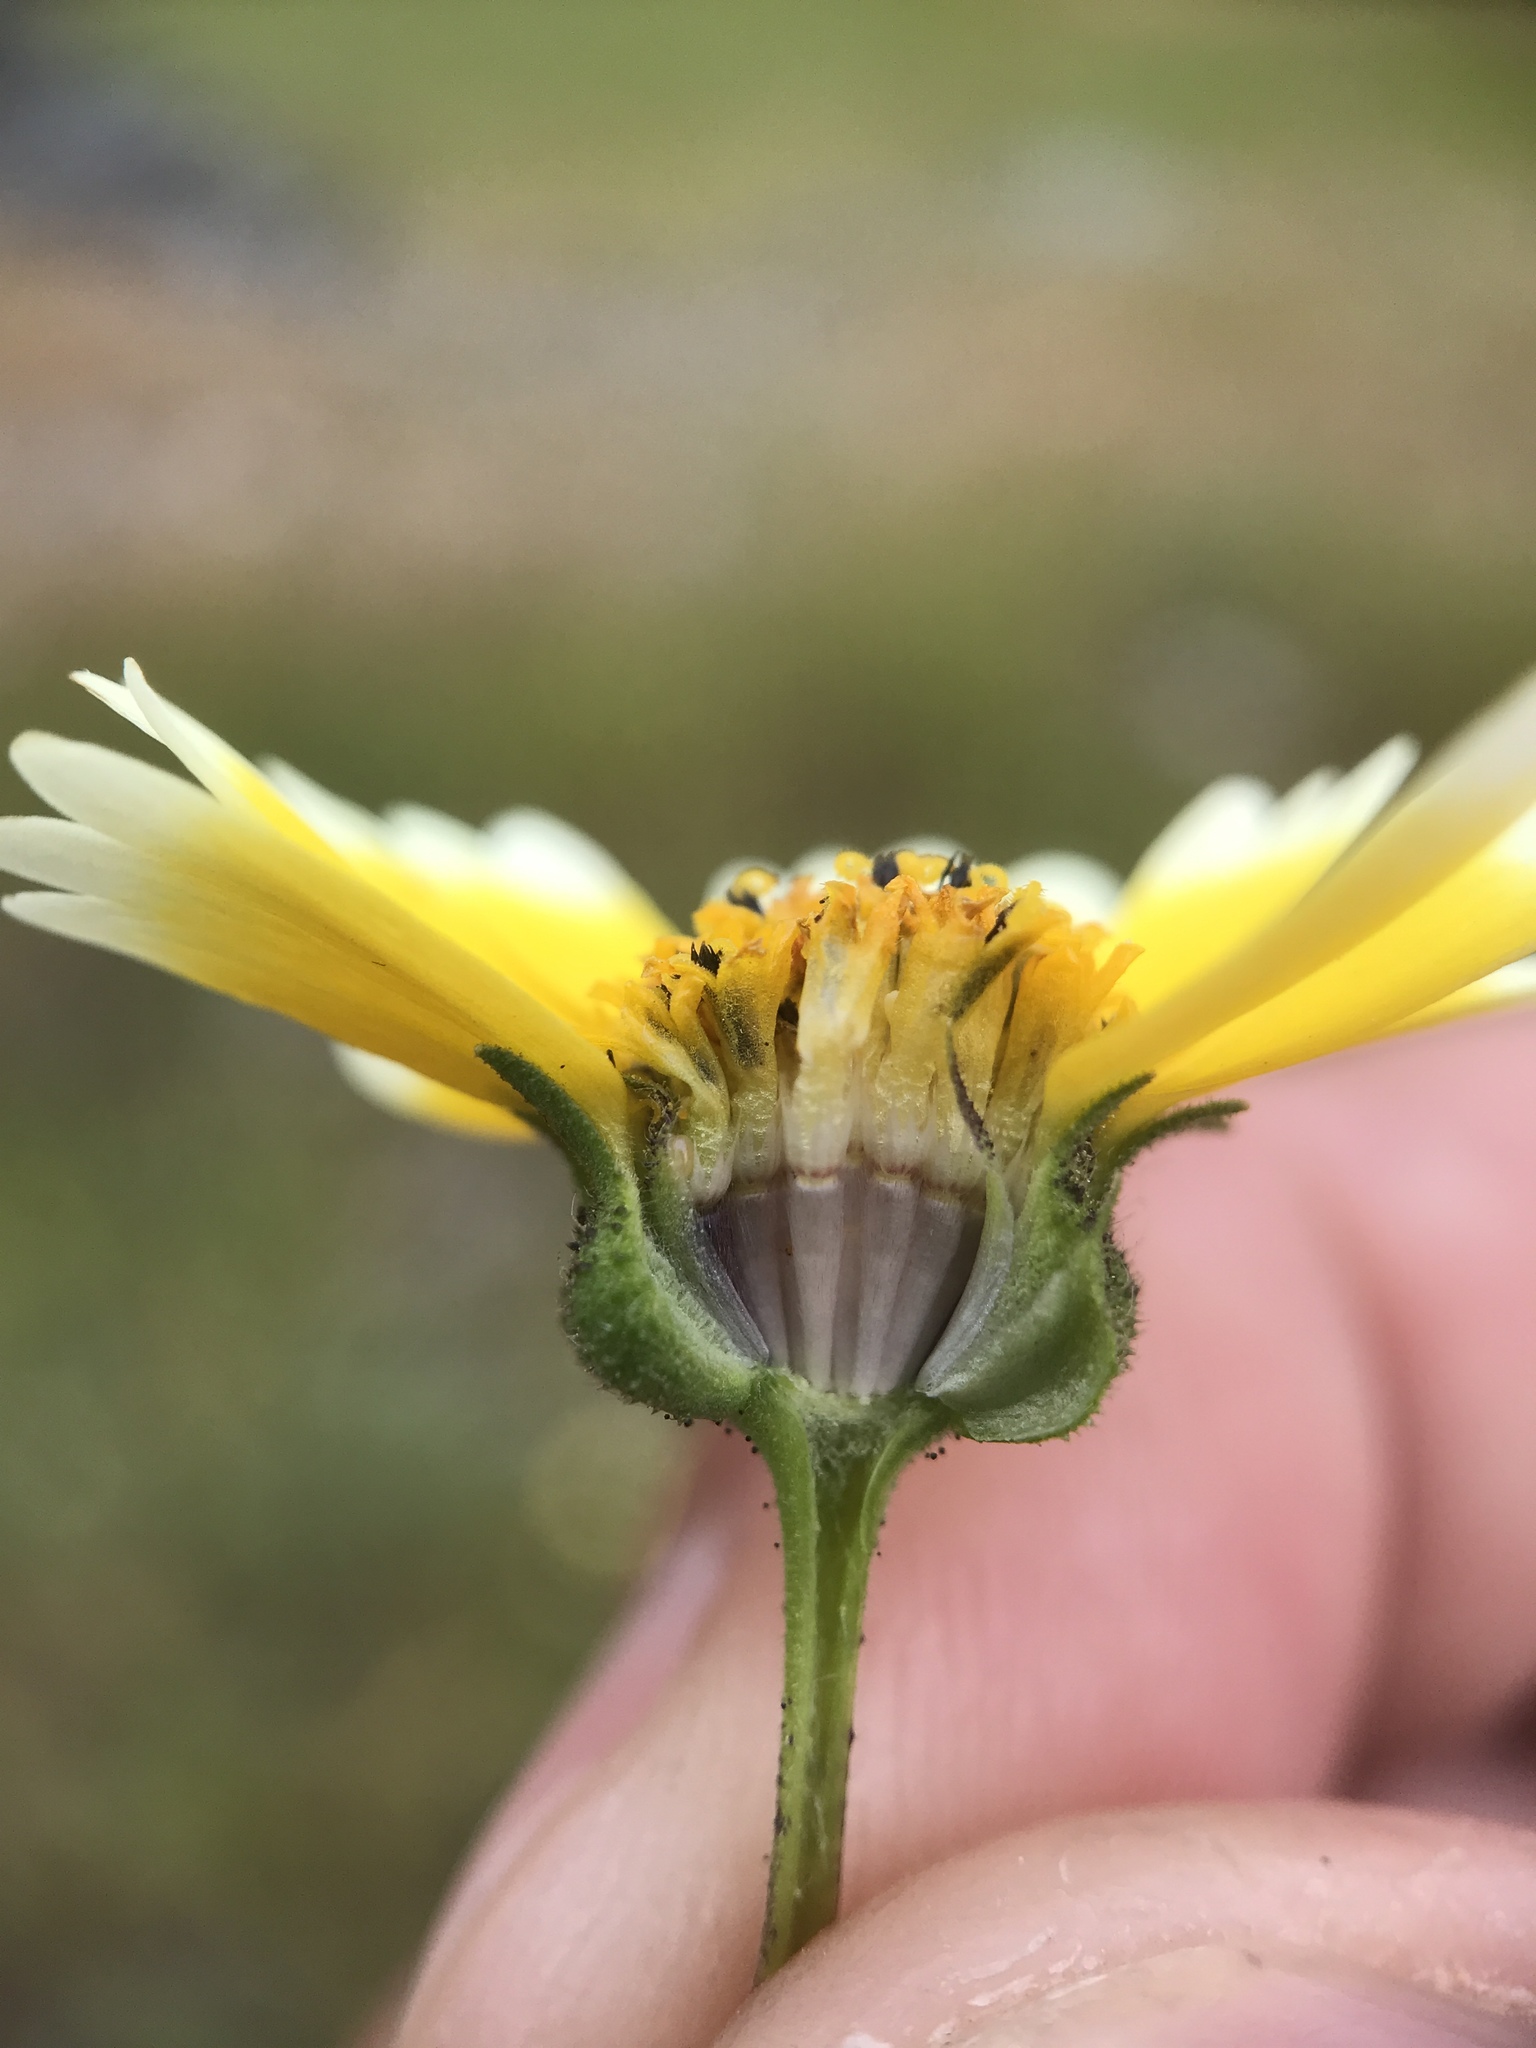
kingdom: Plantae
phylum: Tracheophyta
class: Magnoliopsida
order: Asterales
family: Asteraceae
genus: Layia
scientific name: Layia jonesii
